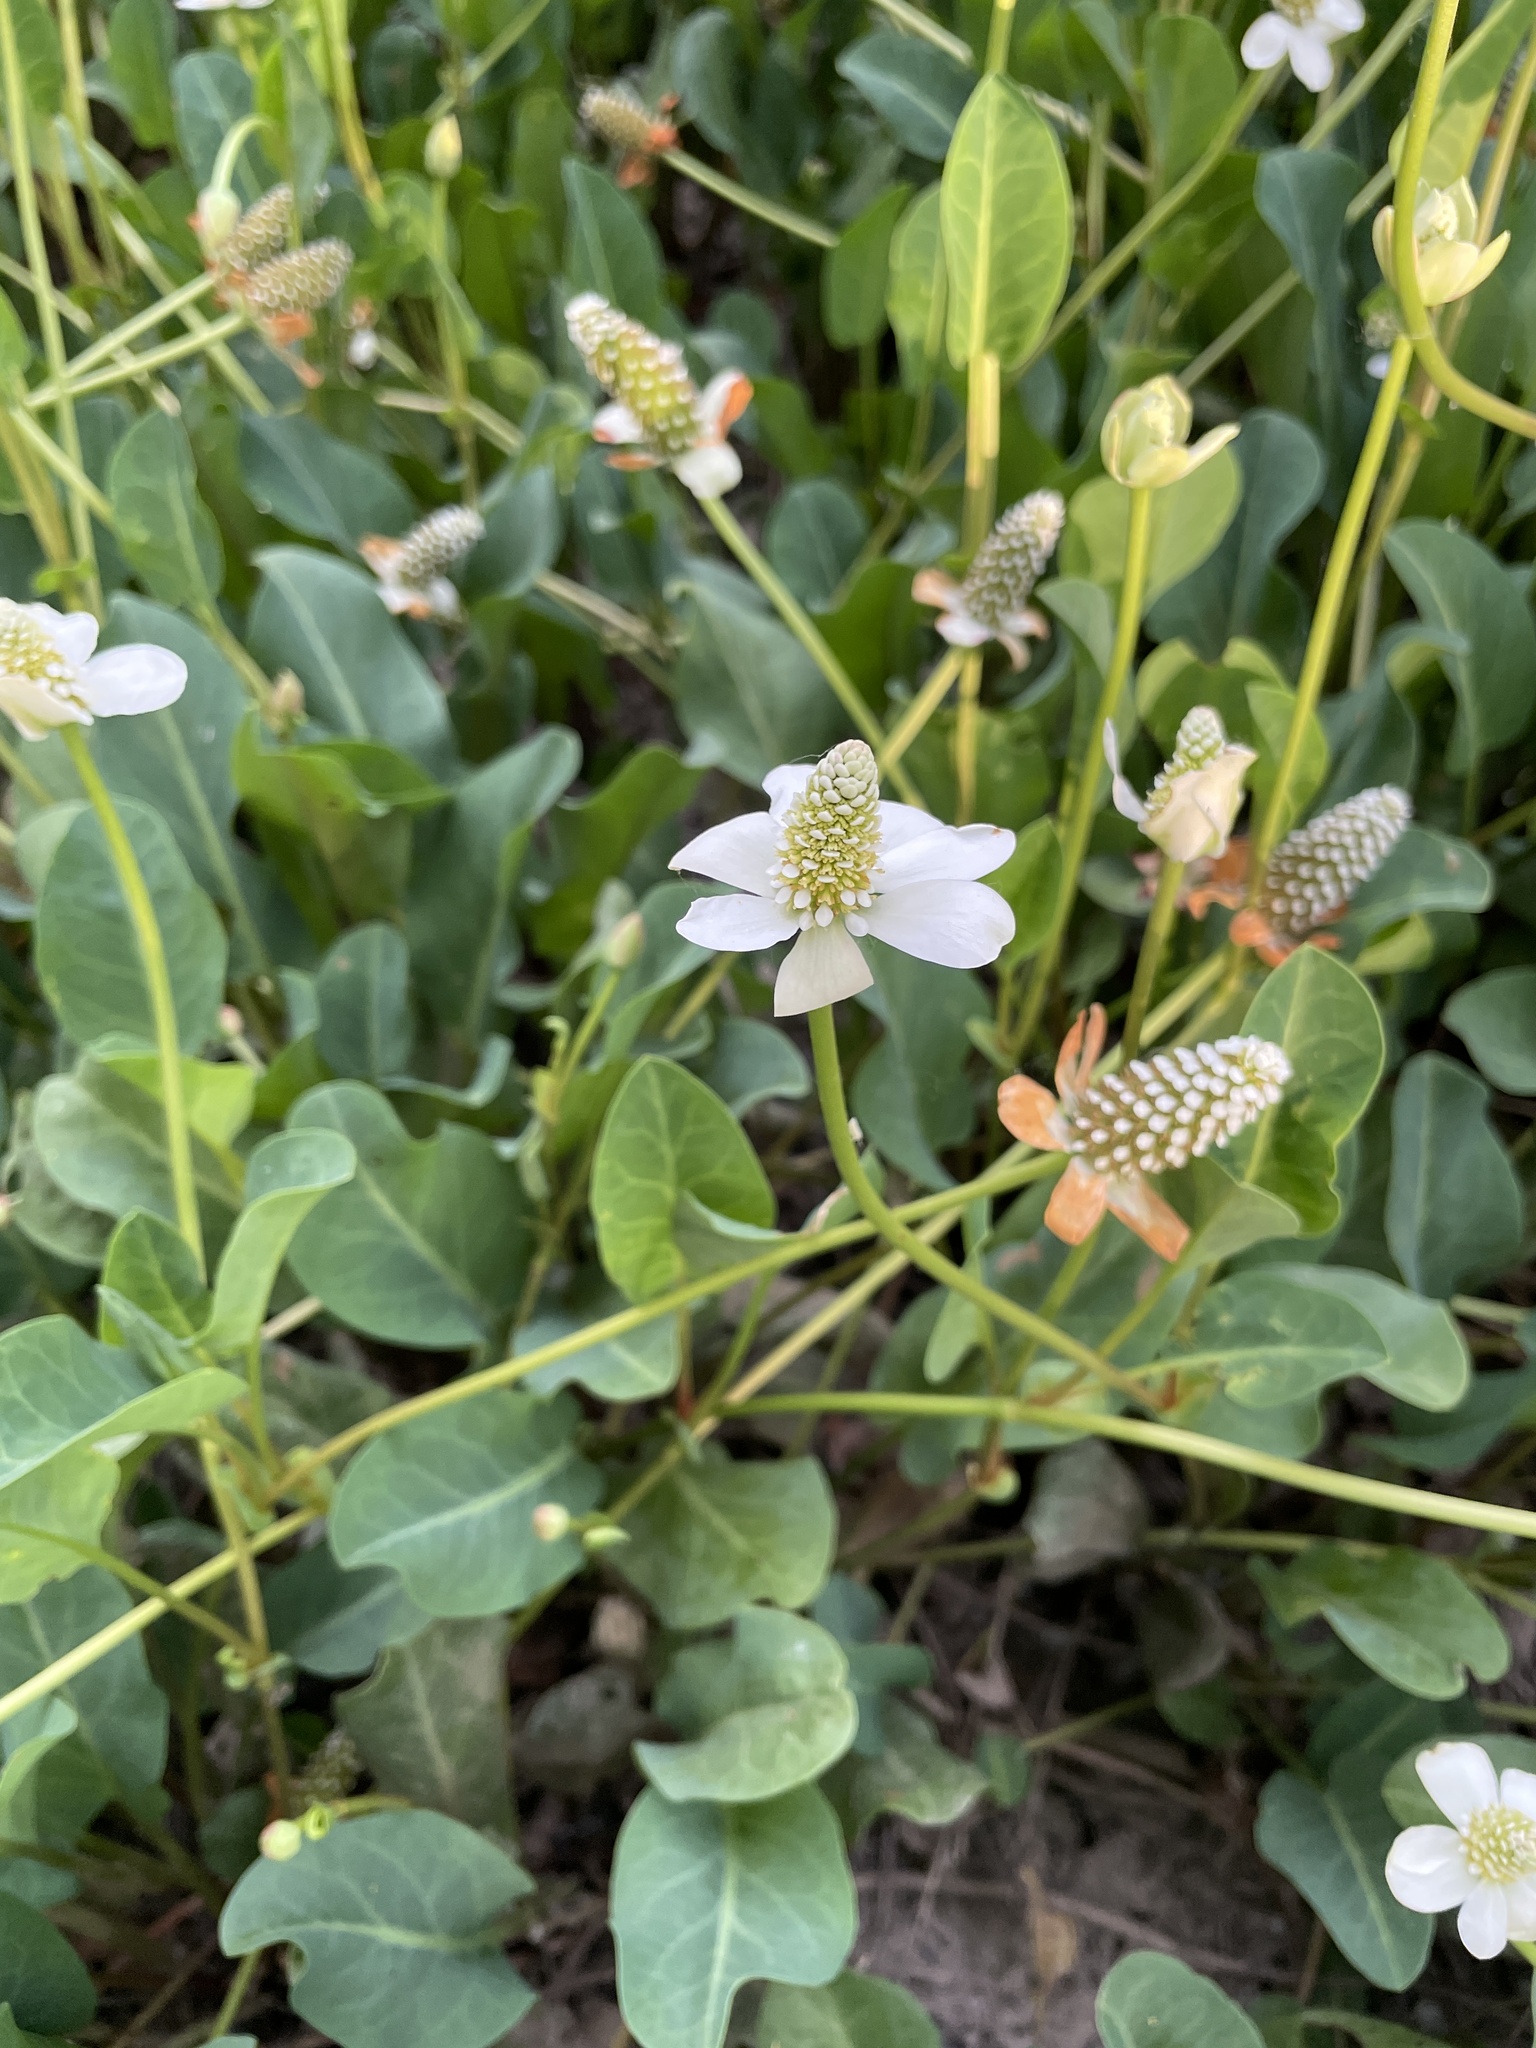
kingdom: Plantae
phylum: Tracheophyta
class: Magnoliopsida
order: Piperales
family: Saururaceae
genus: Anemopsis
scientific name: Anemopsis californica
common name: Apache-beads
